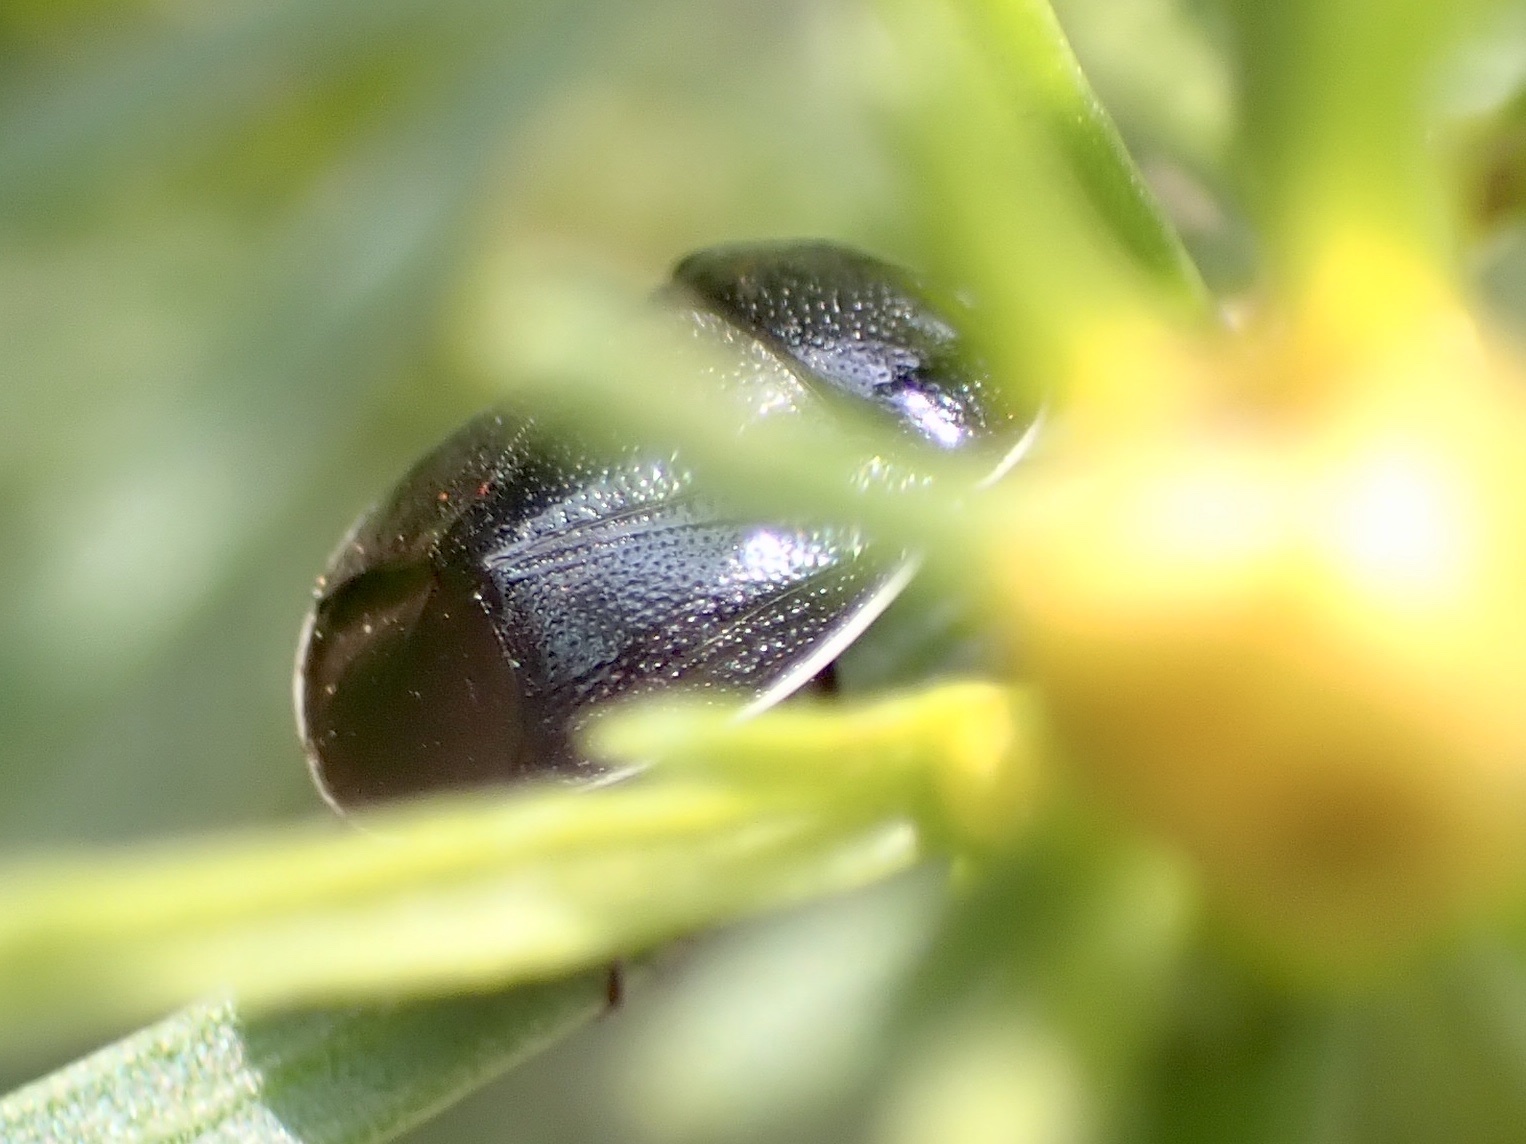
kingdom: Animalia
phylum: Arthropoda
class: Insecta
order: Hemiptera
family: Cydnidae
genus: Sehirus
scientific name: Sehirus cinctus
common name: White-margined burrower bug
